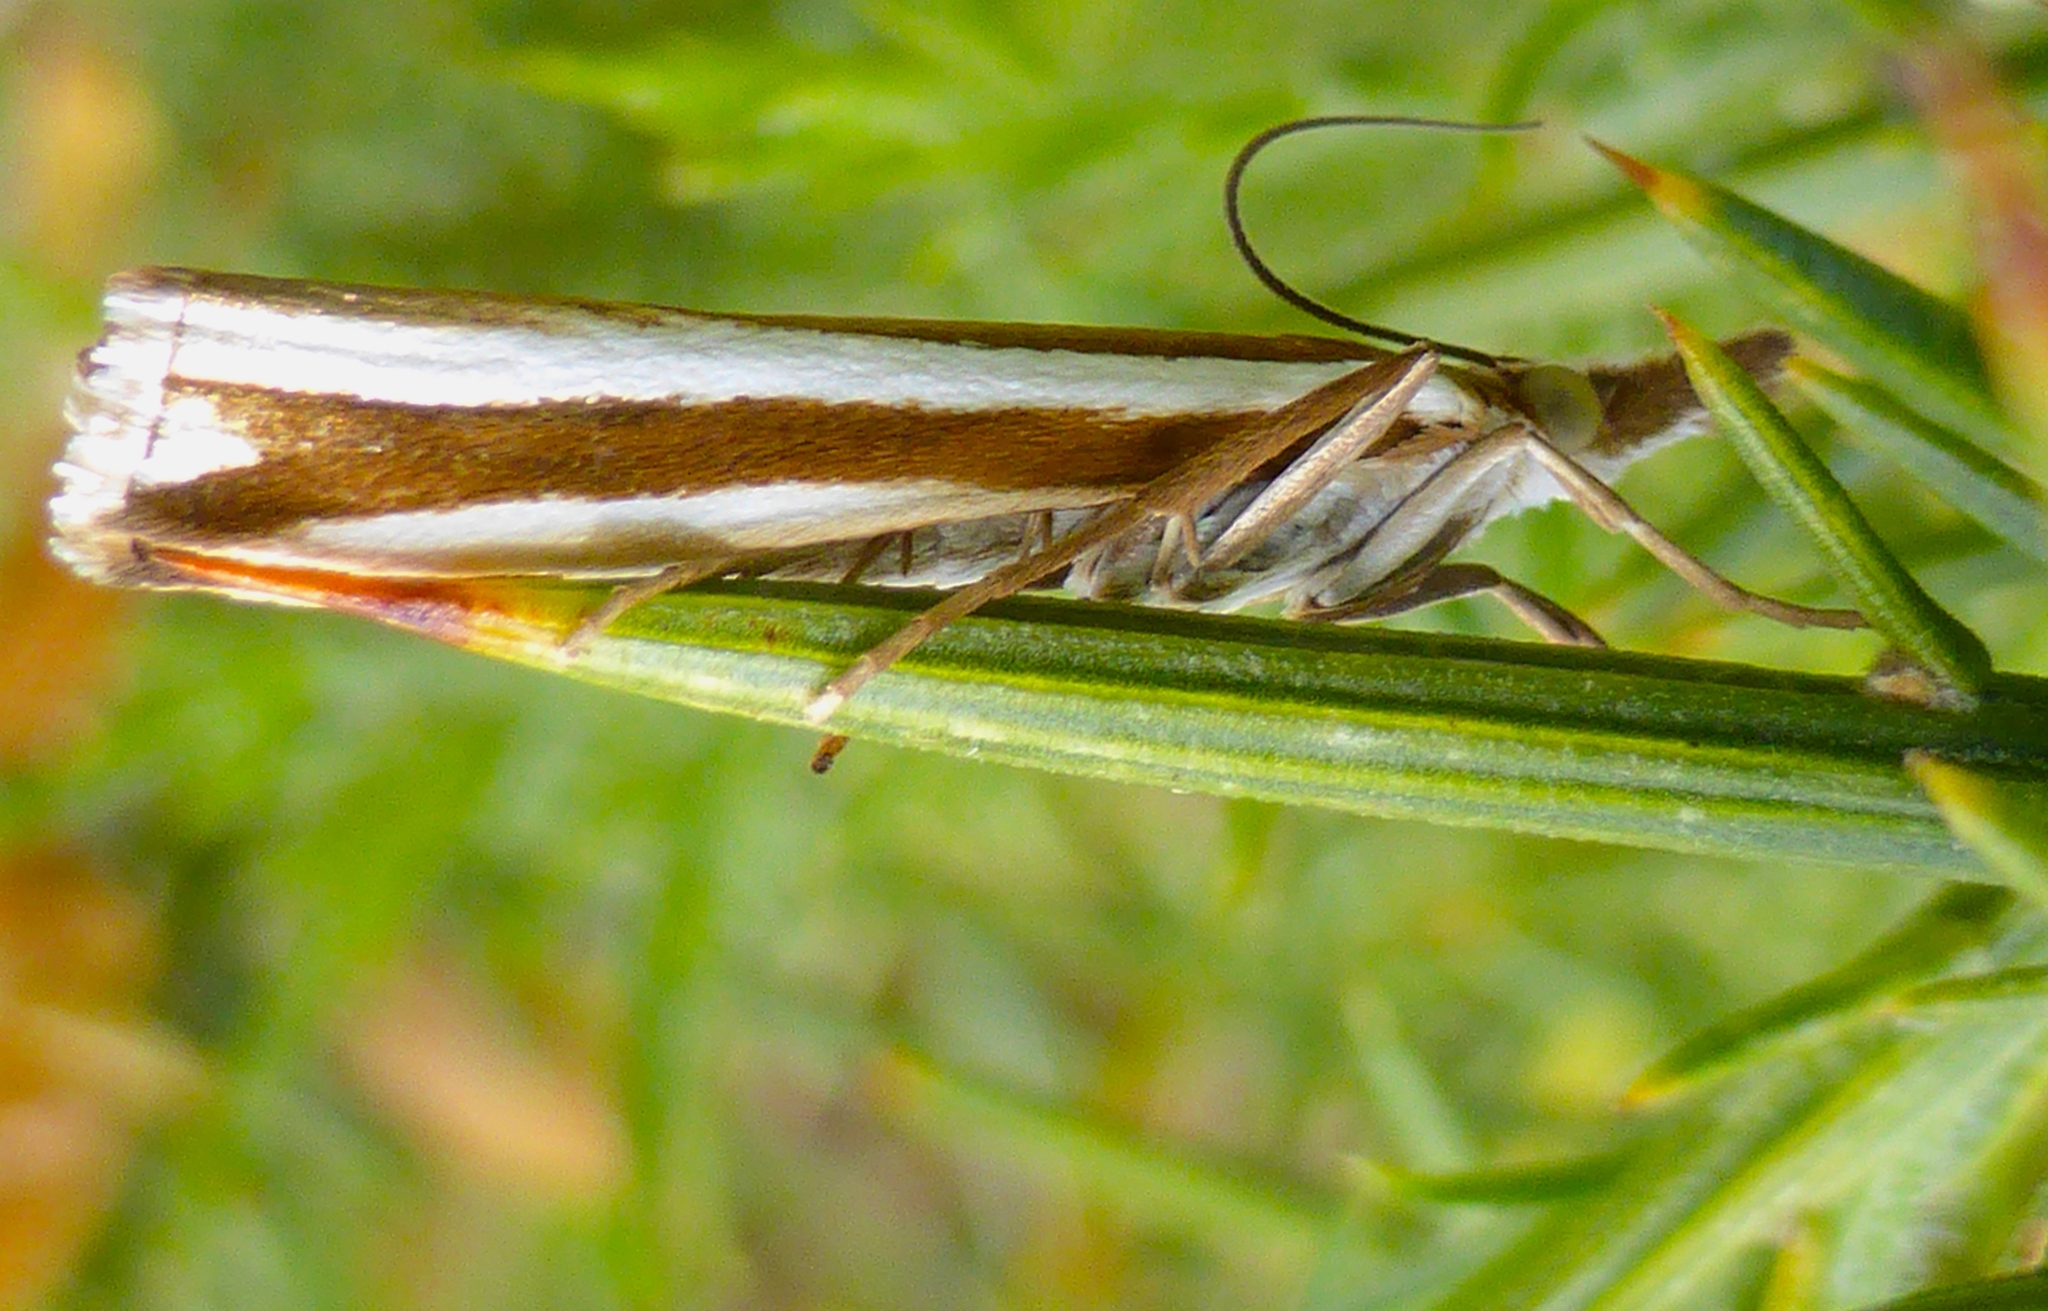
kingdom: Animalia
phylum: Arthropoda
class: Insecta
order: Lepidoptera
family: Crambidae
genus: Orocrambus
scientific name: Orocrambus apicellus
